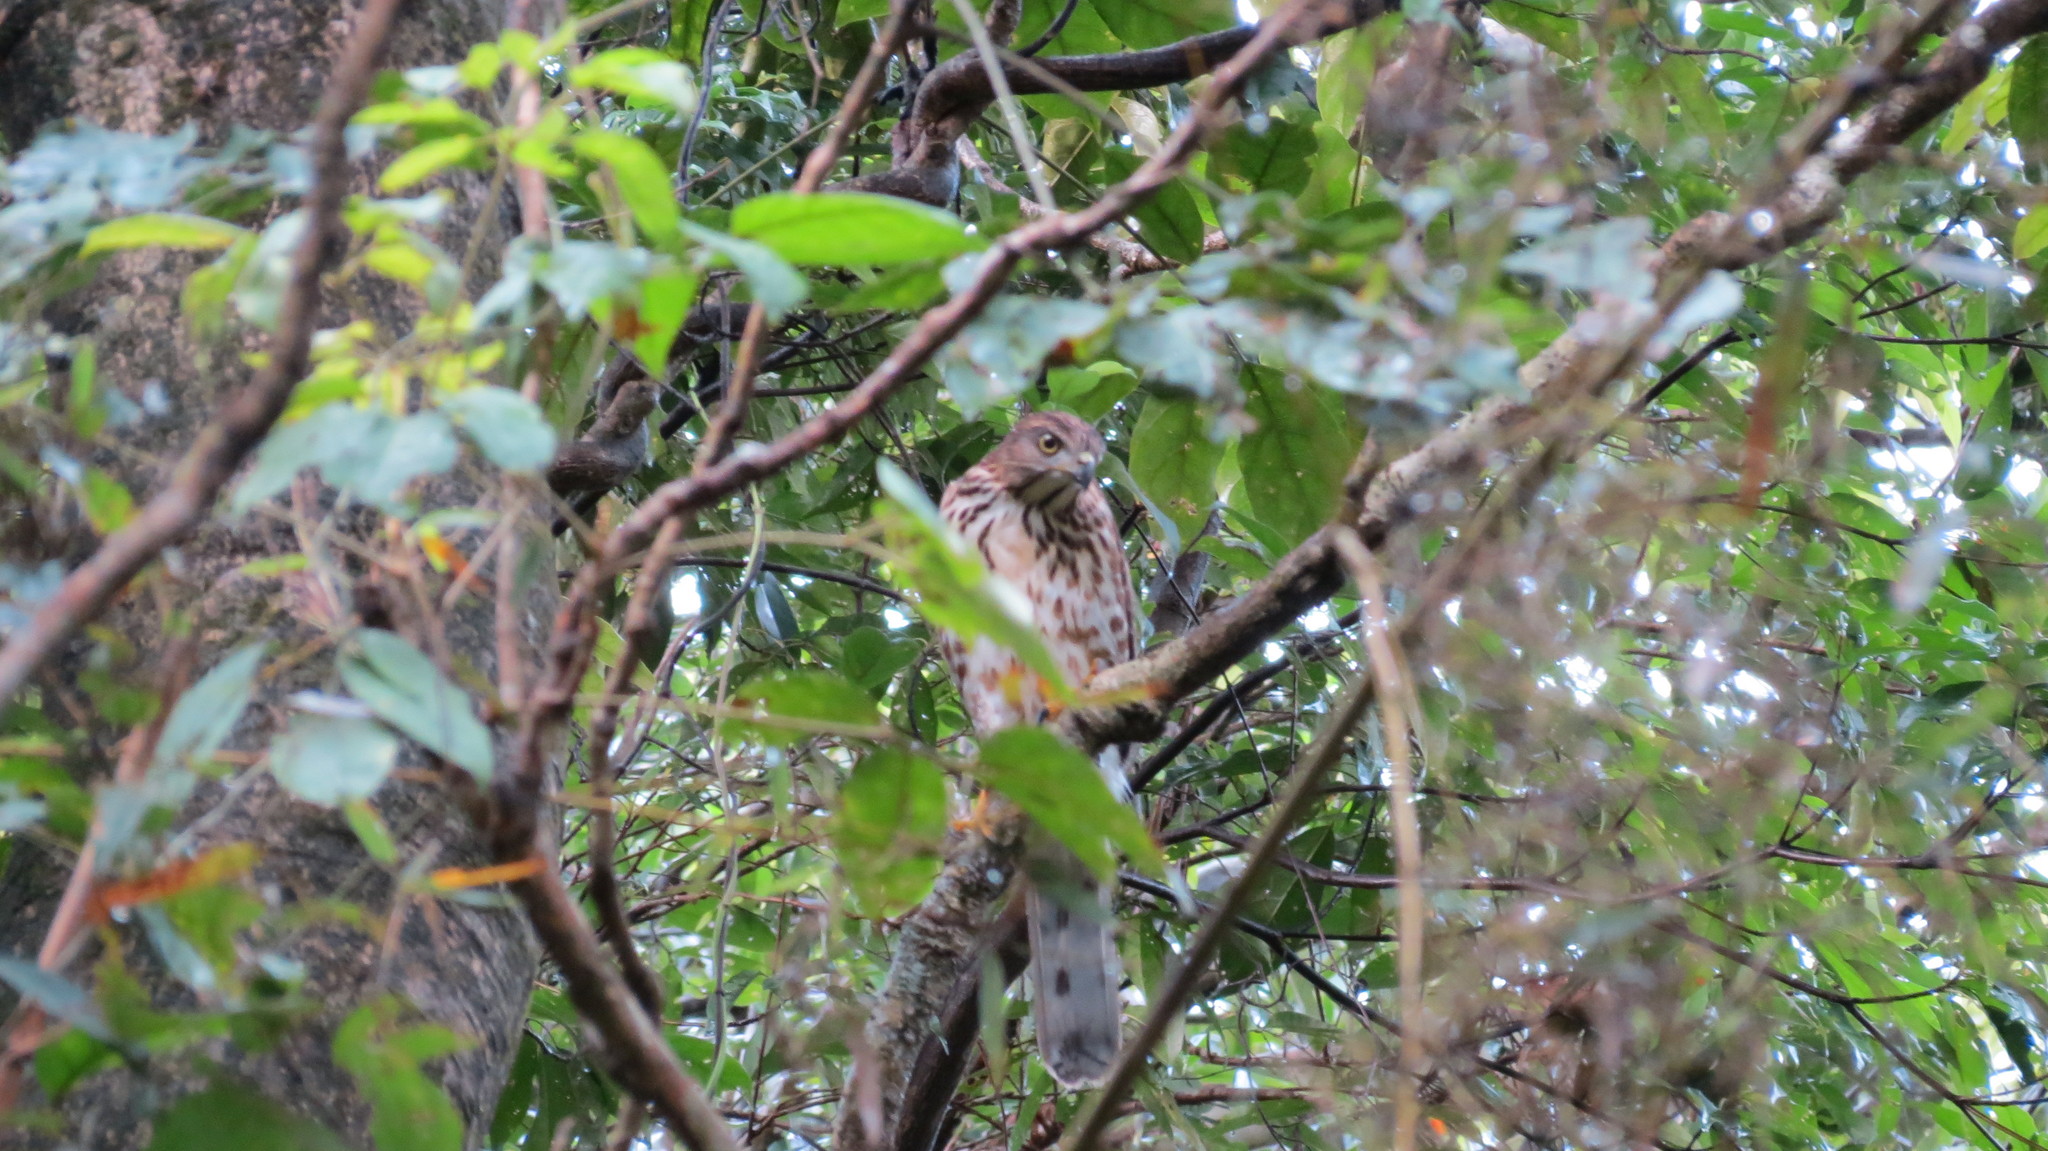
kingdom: Animalia
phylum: Chordata
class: Aves
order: Accipitriformes
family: Accipitridae
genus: Accipiter
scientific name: Accipiter trivirgatus
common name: Crested goshawk
